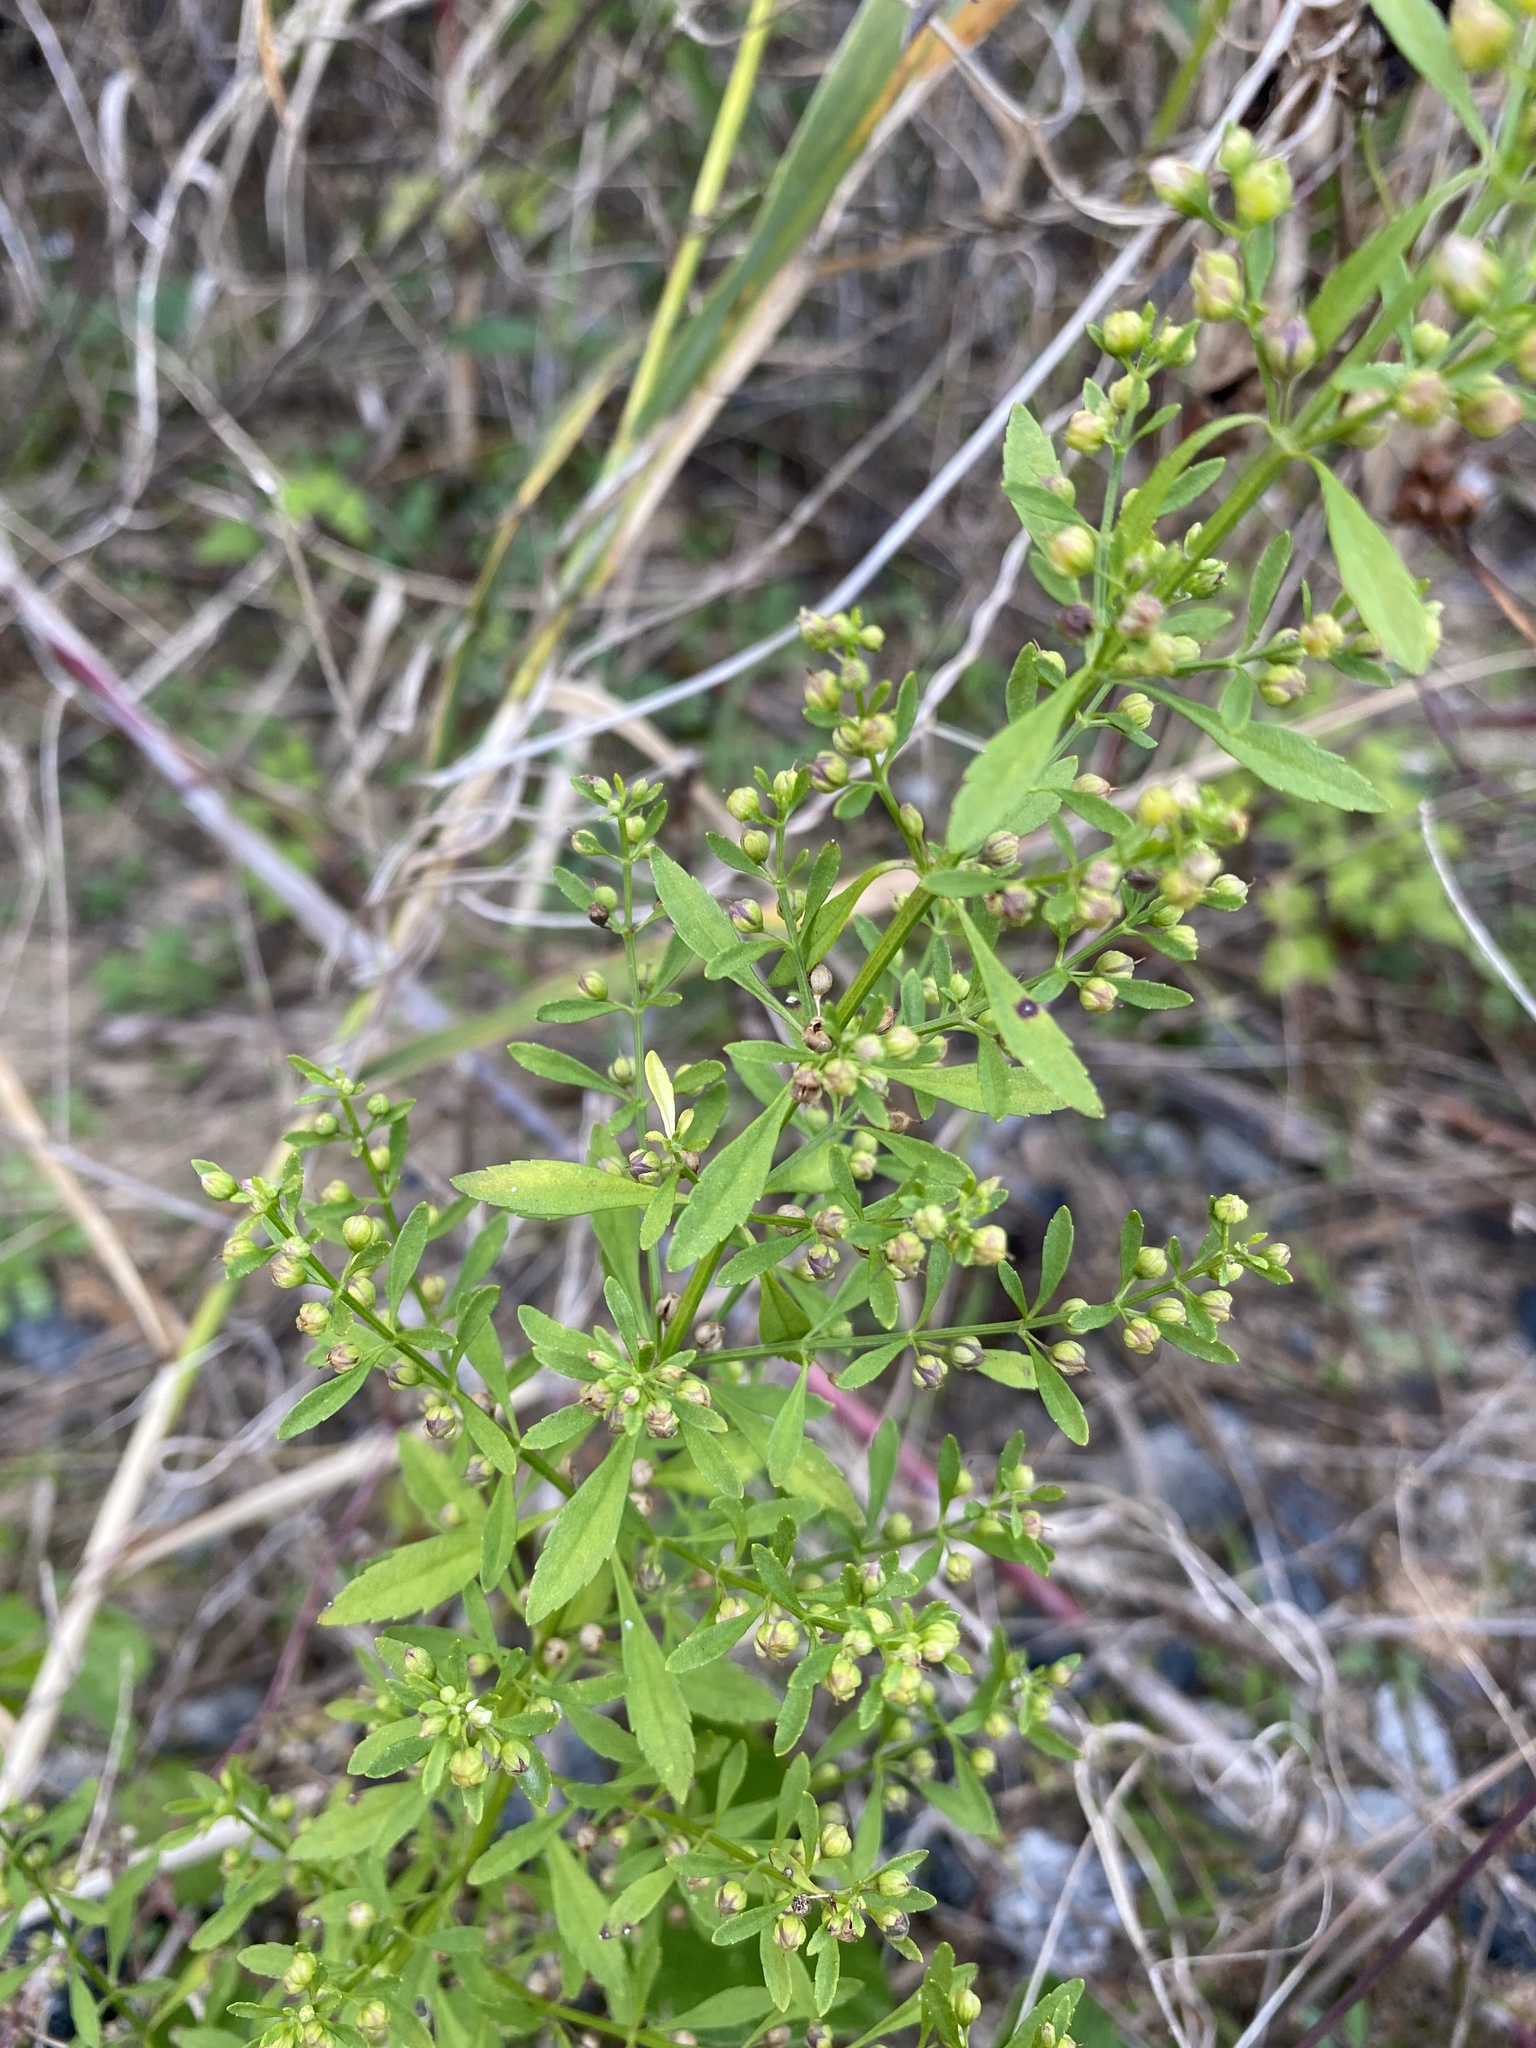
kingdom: Plantae
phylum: Tracheophyta
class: Magnoliopsida
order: Lamiales
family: Plantaginaceae
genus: Scoparia
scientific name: Scoparia dulcis
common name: Scoparia-weed
